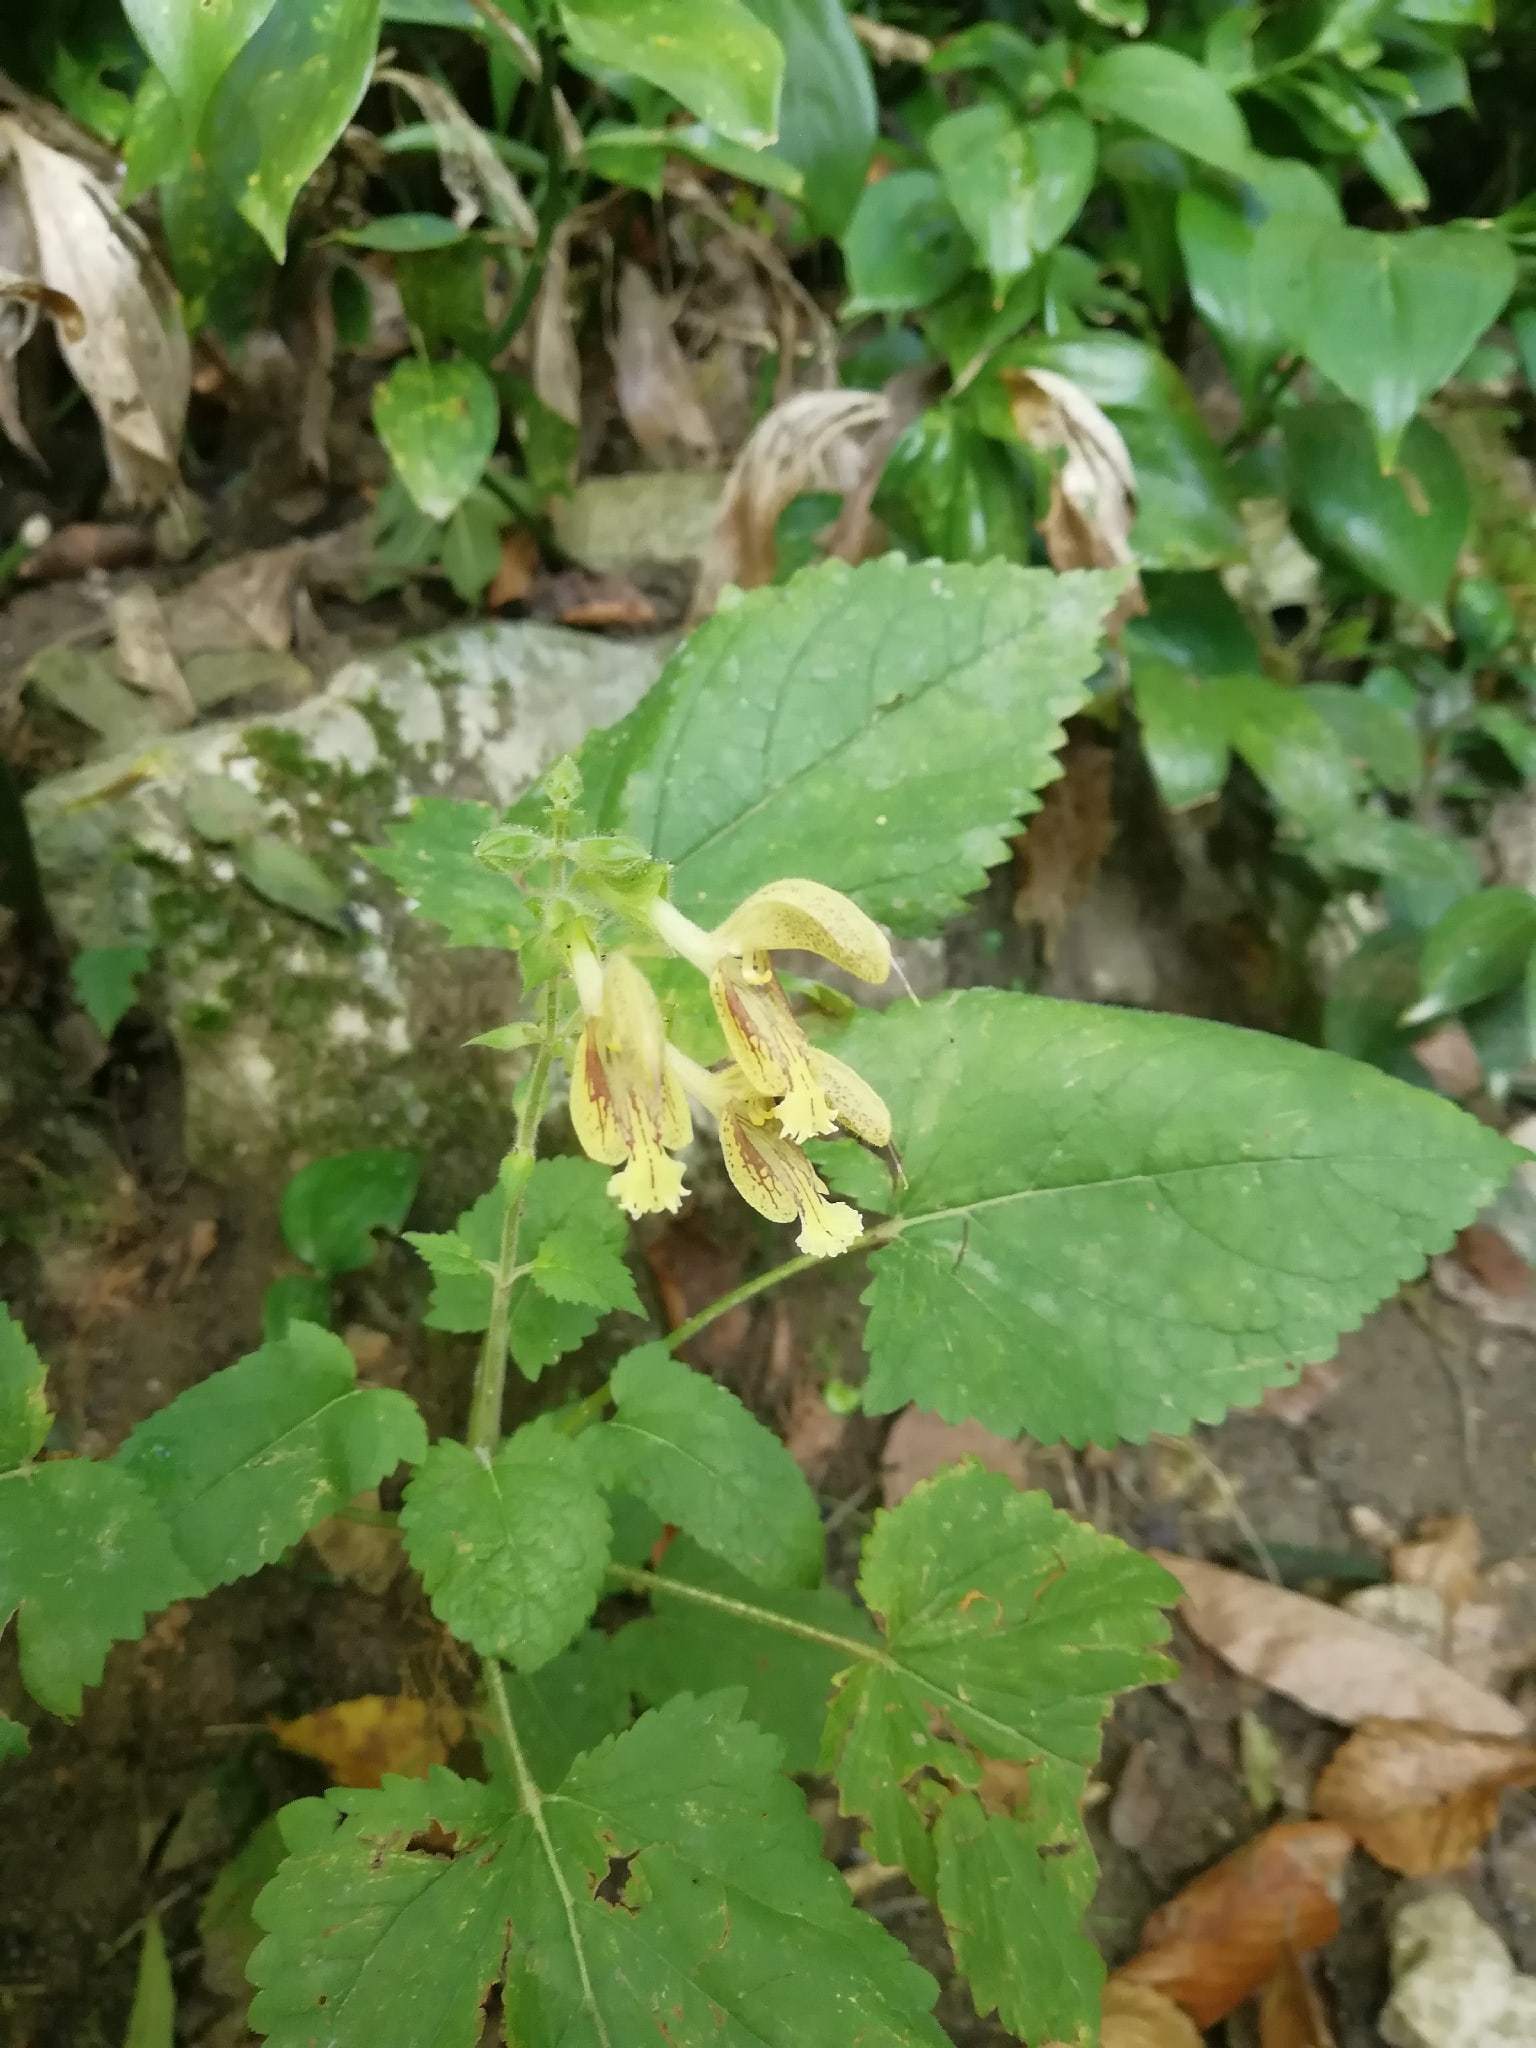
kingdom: Plantae
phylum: Tracheophyta
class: Magnoliopsida
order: Lamiales
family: Lamiaceae
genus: Salvia
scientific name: Salvia glutinosa
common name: Sticky clary
